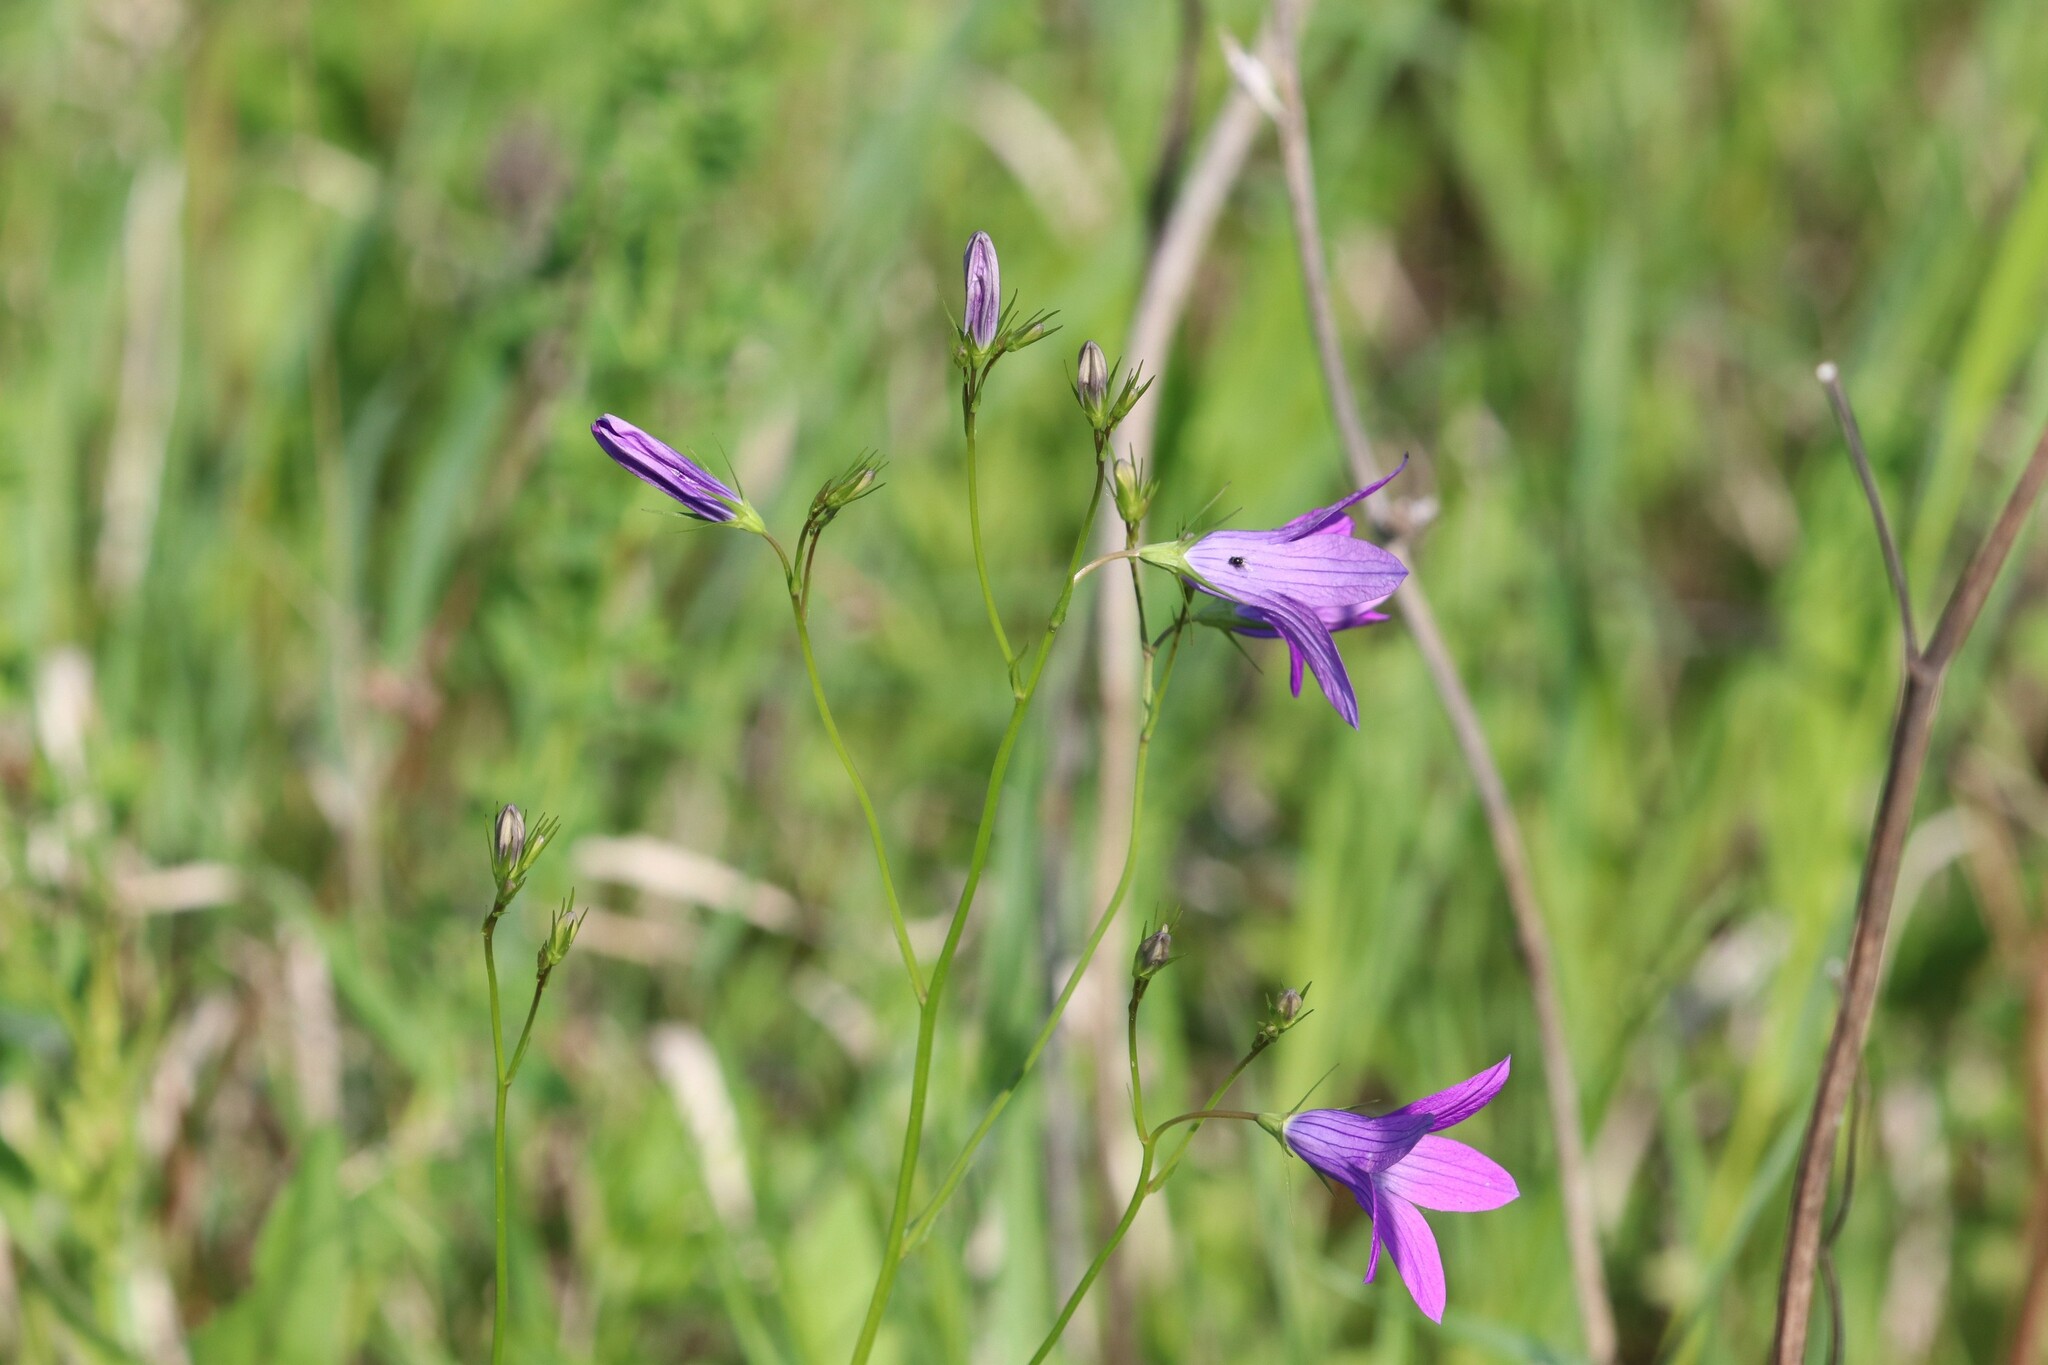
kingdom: Plantae
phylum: Tracheophyta
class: Magnoliopsida
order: Asterales
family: Campanulaceae
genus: Campanula
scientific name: Campanula patula
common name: Spreading bellflower
